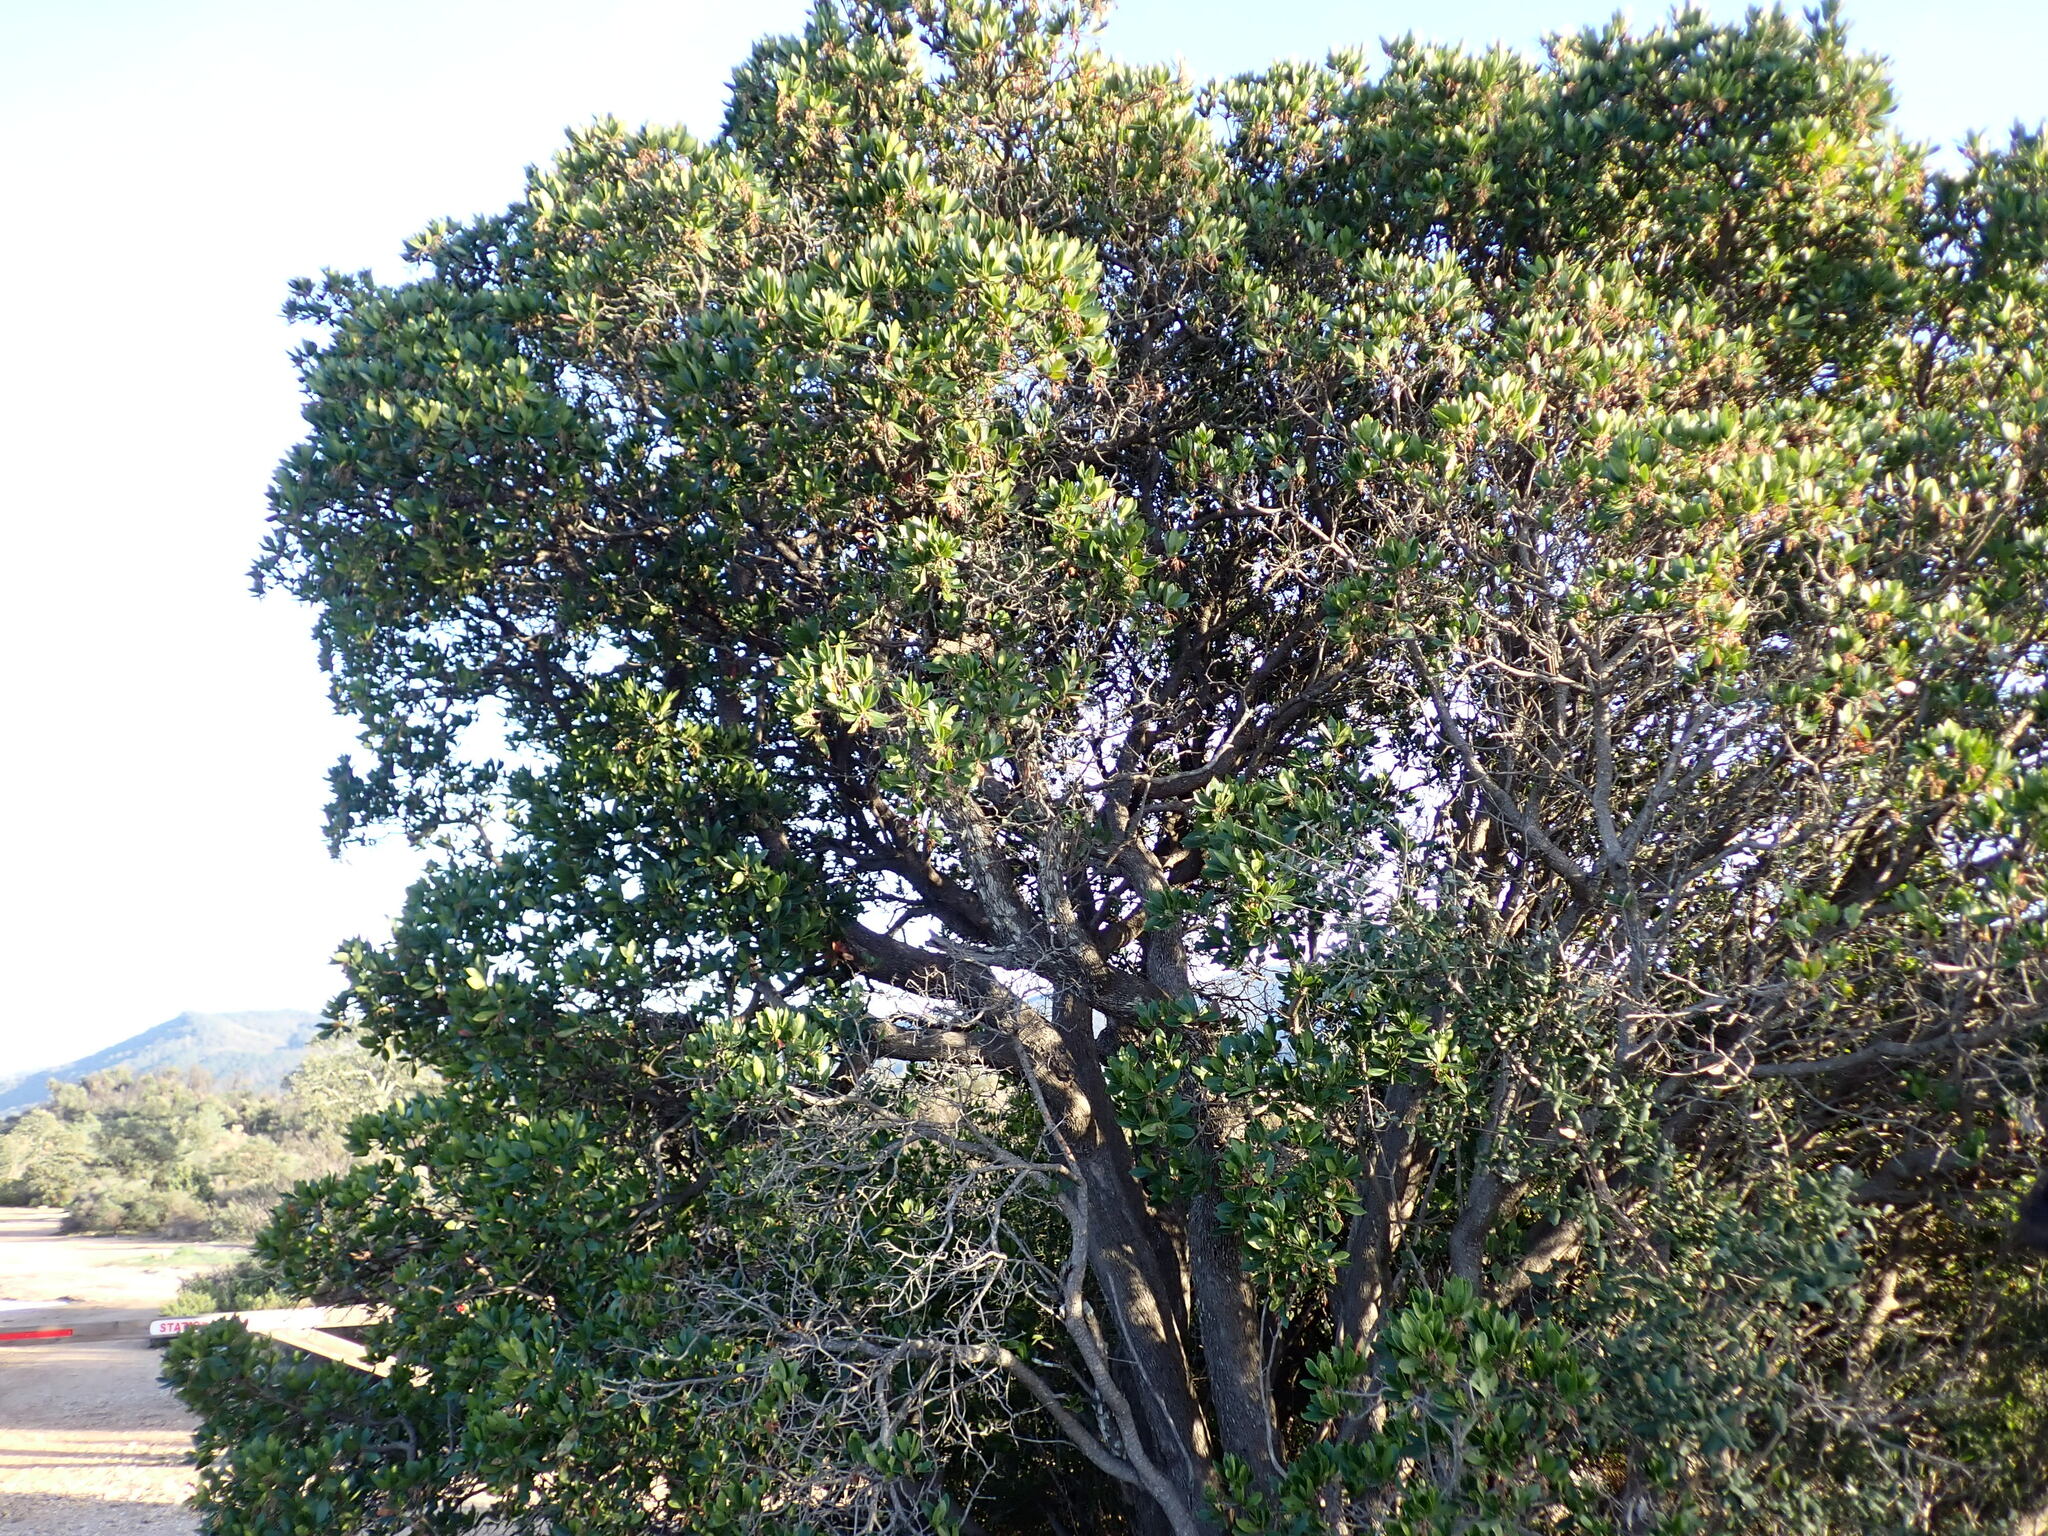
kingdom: Plantae
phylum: Tracheophyta
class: Magnoliopsida
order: Ericales
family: Ericaceae
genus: Arbutus
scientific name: Arbutus unedo
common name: Strawberry-tree
